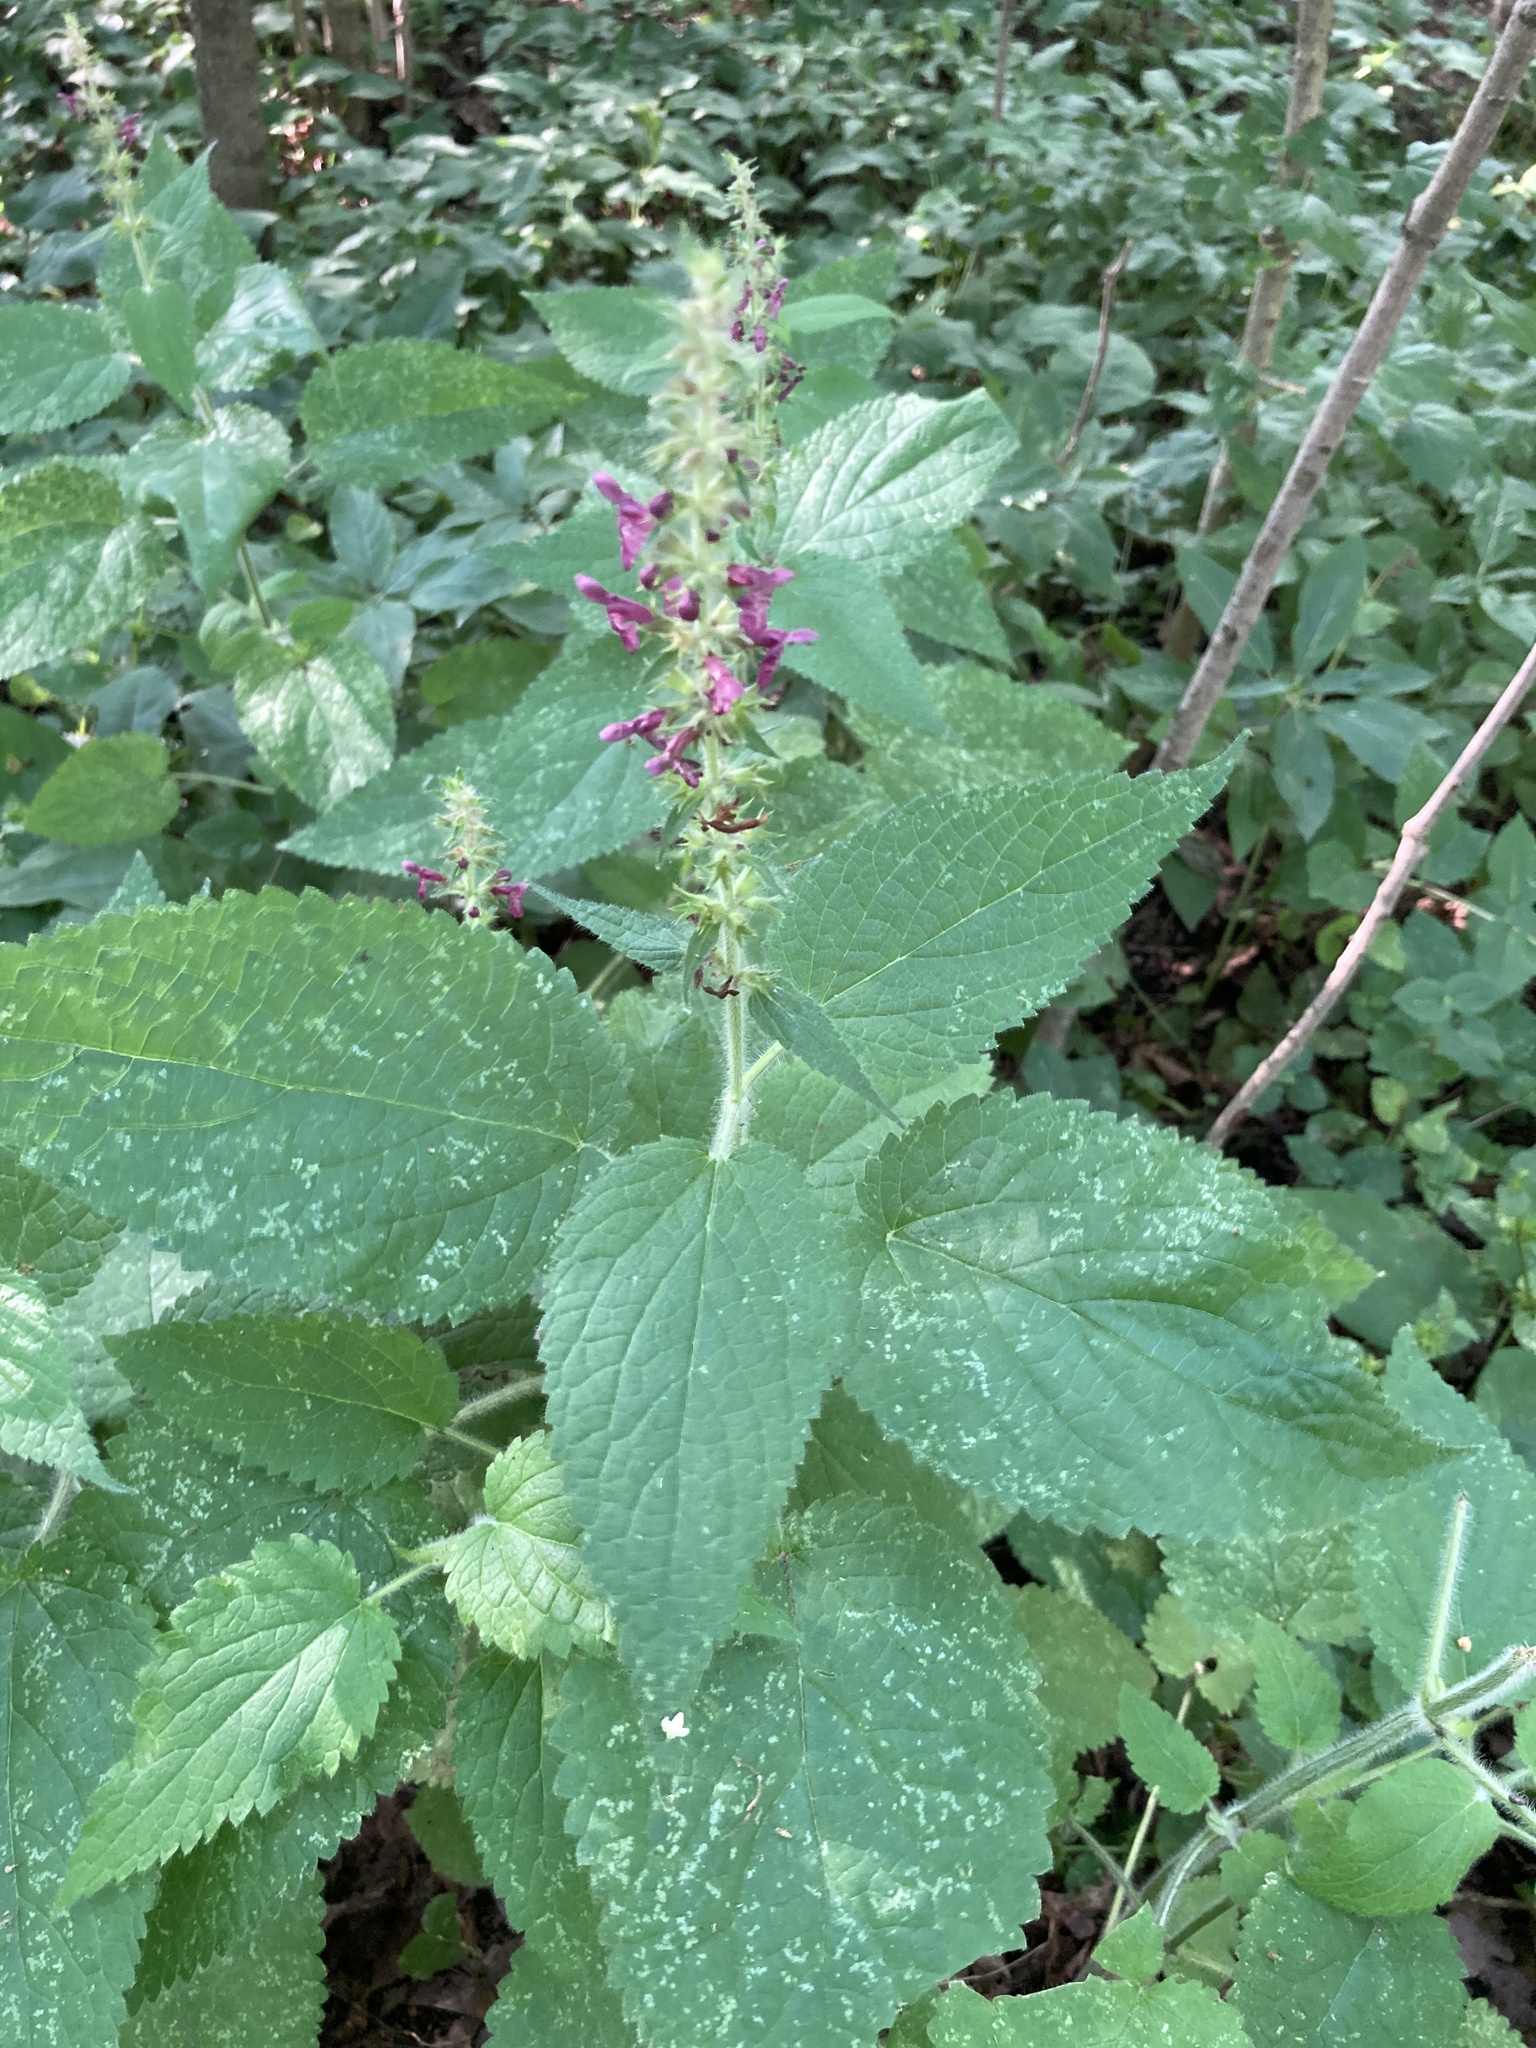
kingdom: Plantae
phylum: Tracheophyta
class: Magnoliopsida
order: Lamiales
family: Lamiaceae
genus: Stachys
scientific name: Stachys sylvatica
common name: Hedge woundwort
